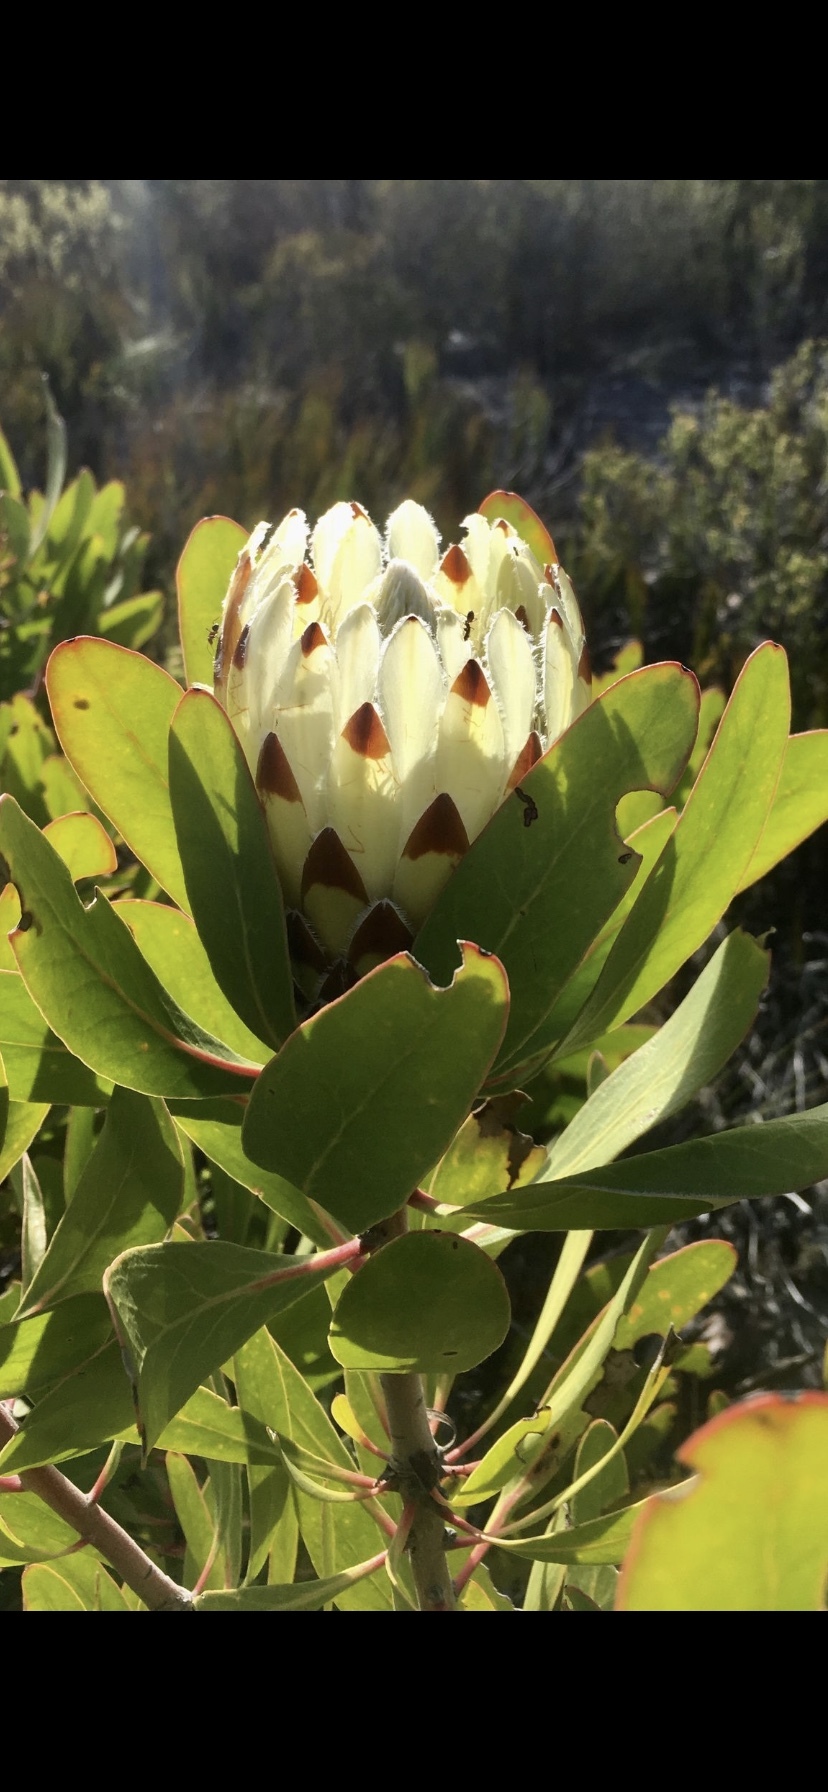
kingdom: Plantae
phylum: Tracheophyta
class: Magnoliopsida
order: Proteales
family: Proteaceae
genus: Protea
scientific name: Protea obtusifolia
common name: Bredasdorp sugarbush
